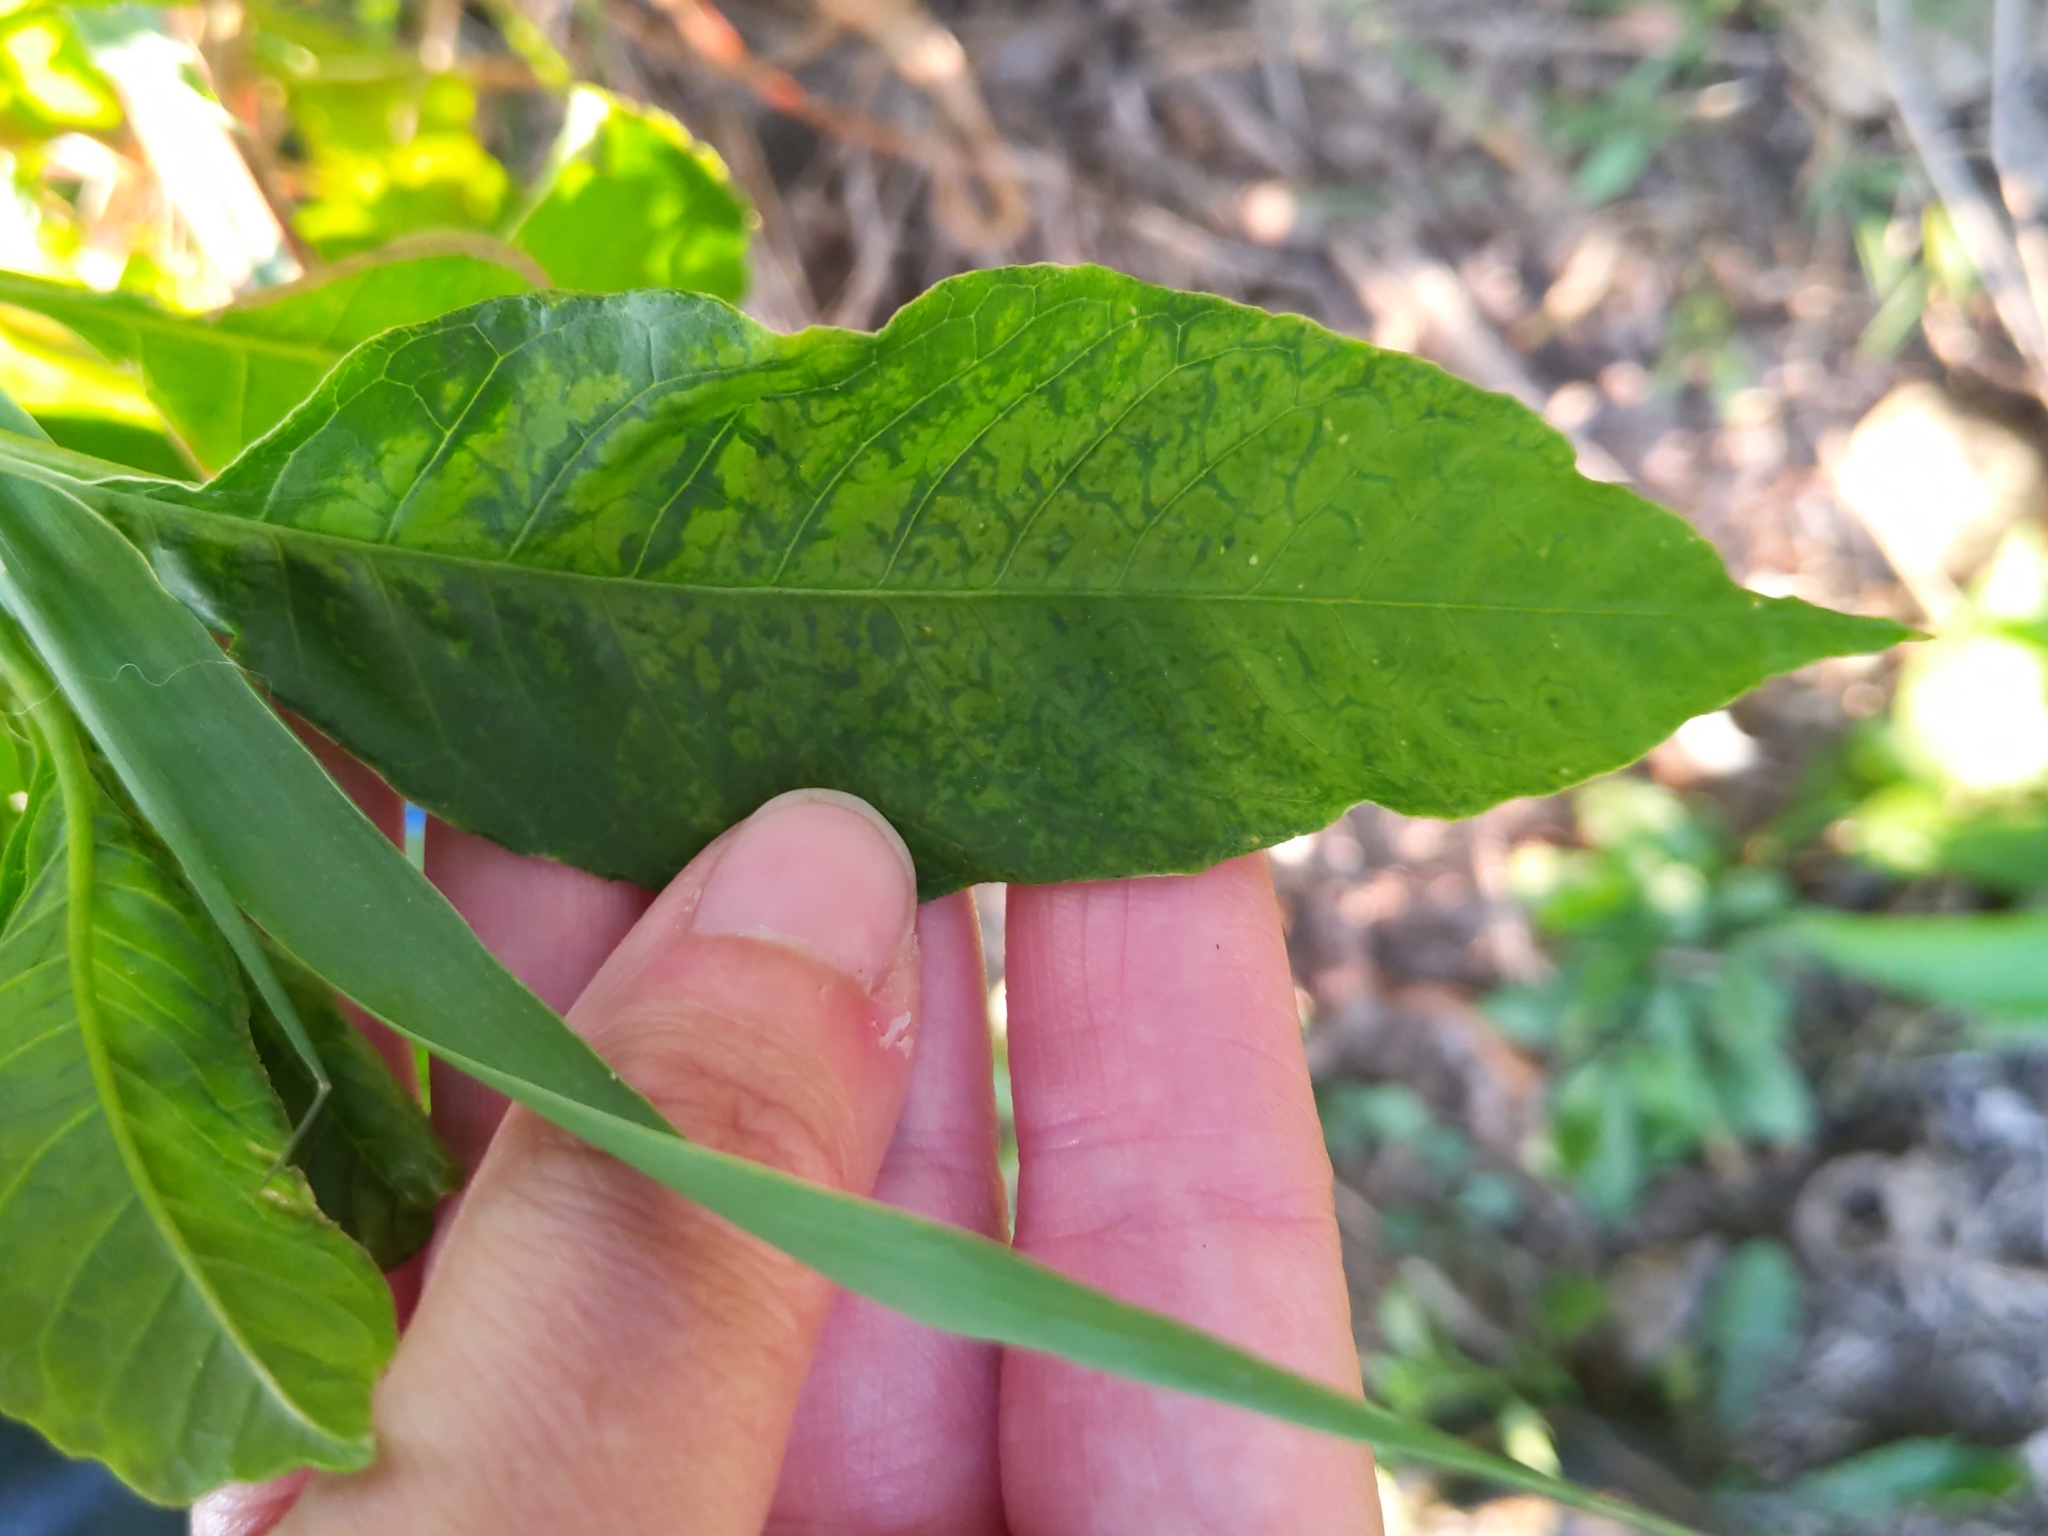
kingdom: Viruses
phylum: Pisuviricota
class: Stelpaviricetes
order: Patatavirales
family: Potyviridae
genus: Potyvirus
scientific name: Potyvirus Pokeweed mosaic virus
